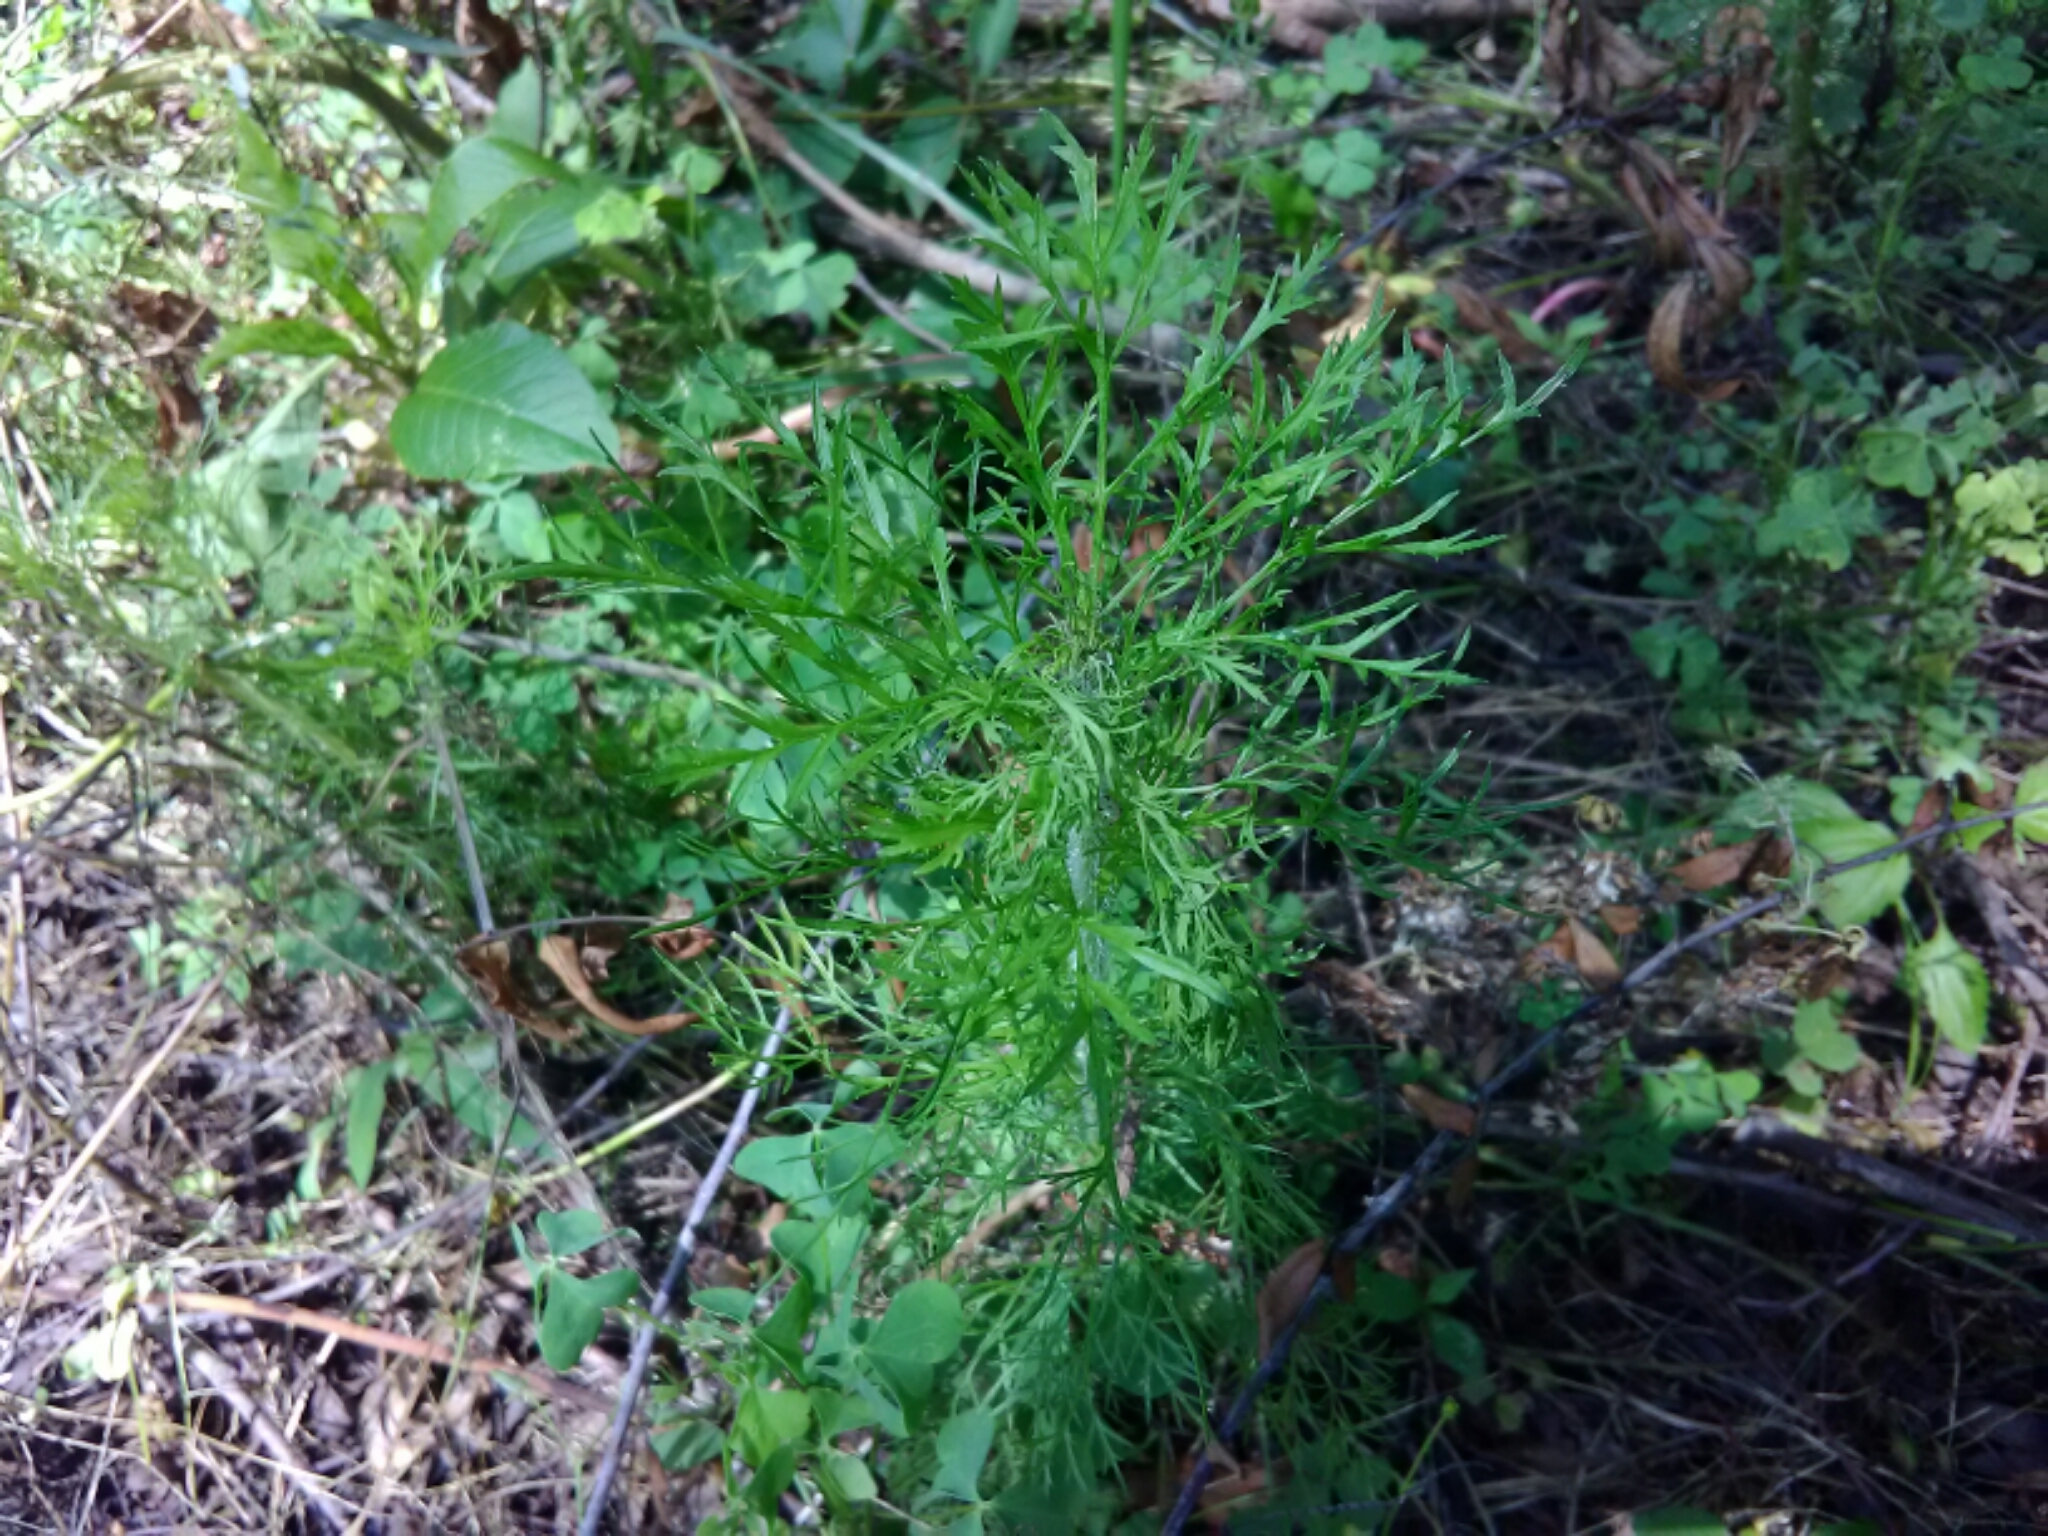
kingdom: Plantae
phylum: Tracheophyta
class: Magnoliopsida
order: Asterales
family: Asteraceae
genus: Eupatorium
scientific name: Eupatorium capillifolium
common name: Dog-fennel
